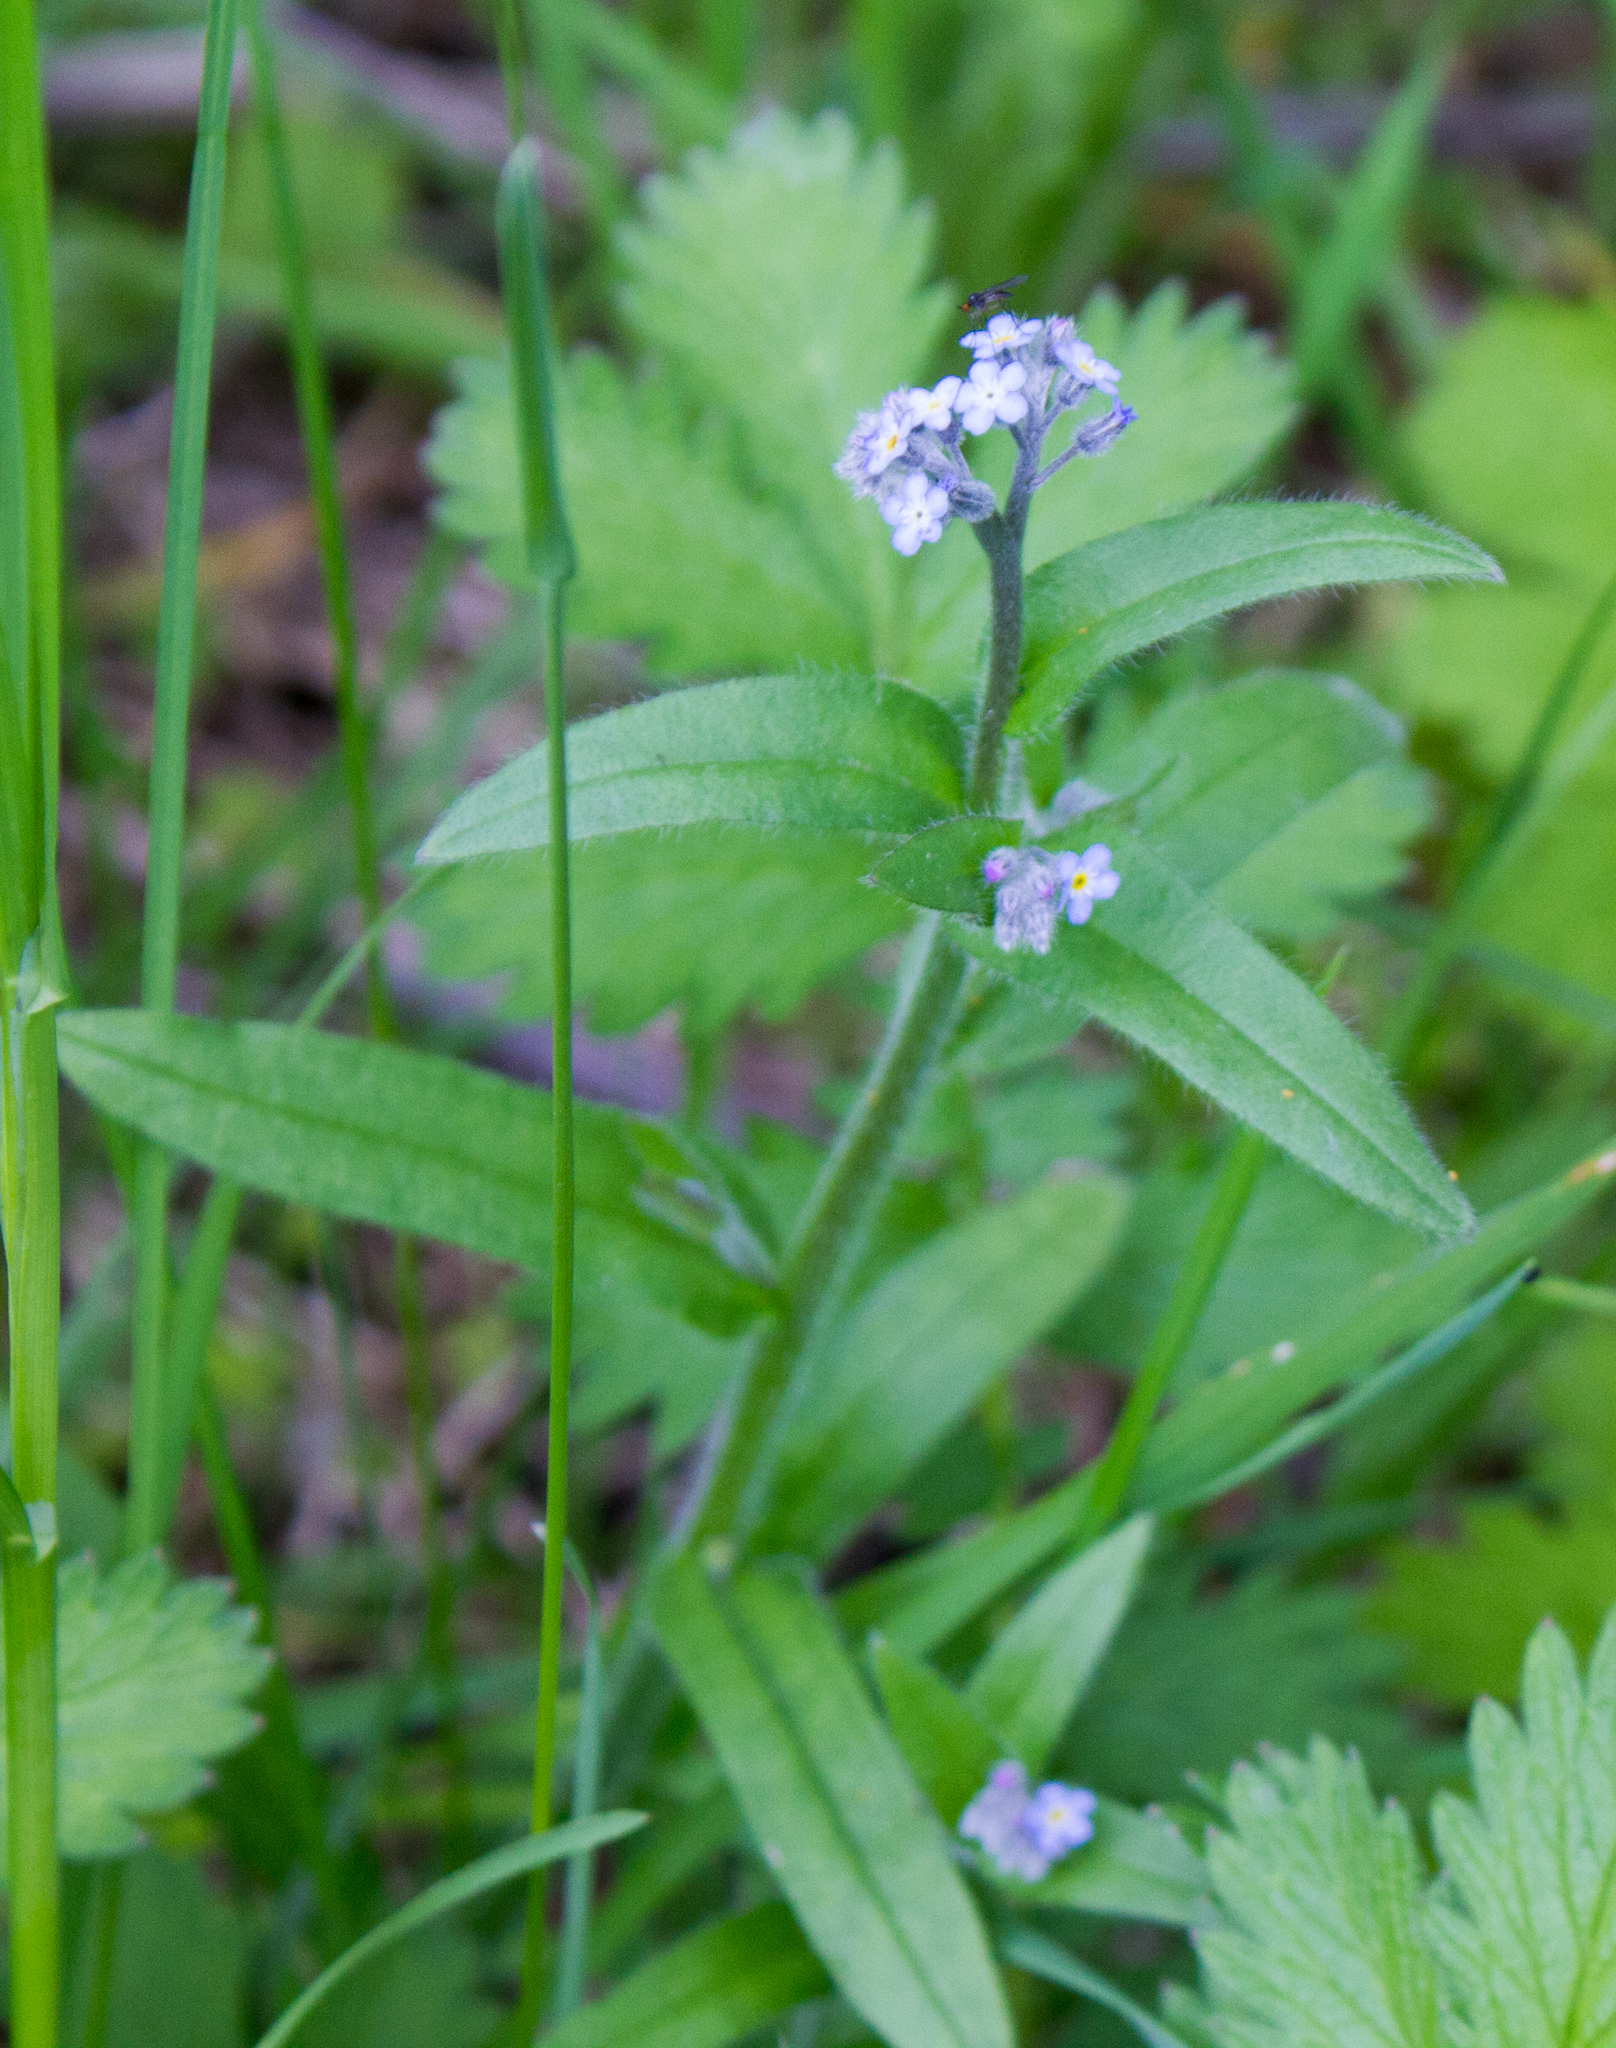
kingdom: Plantae
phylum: Tracheophyta
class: Magnoliopsida
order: Boraginales
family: Boraginaceae
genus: Myosotis
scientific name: Myosotis sylvatica
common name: Wood forget-me-not
